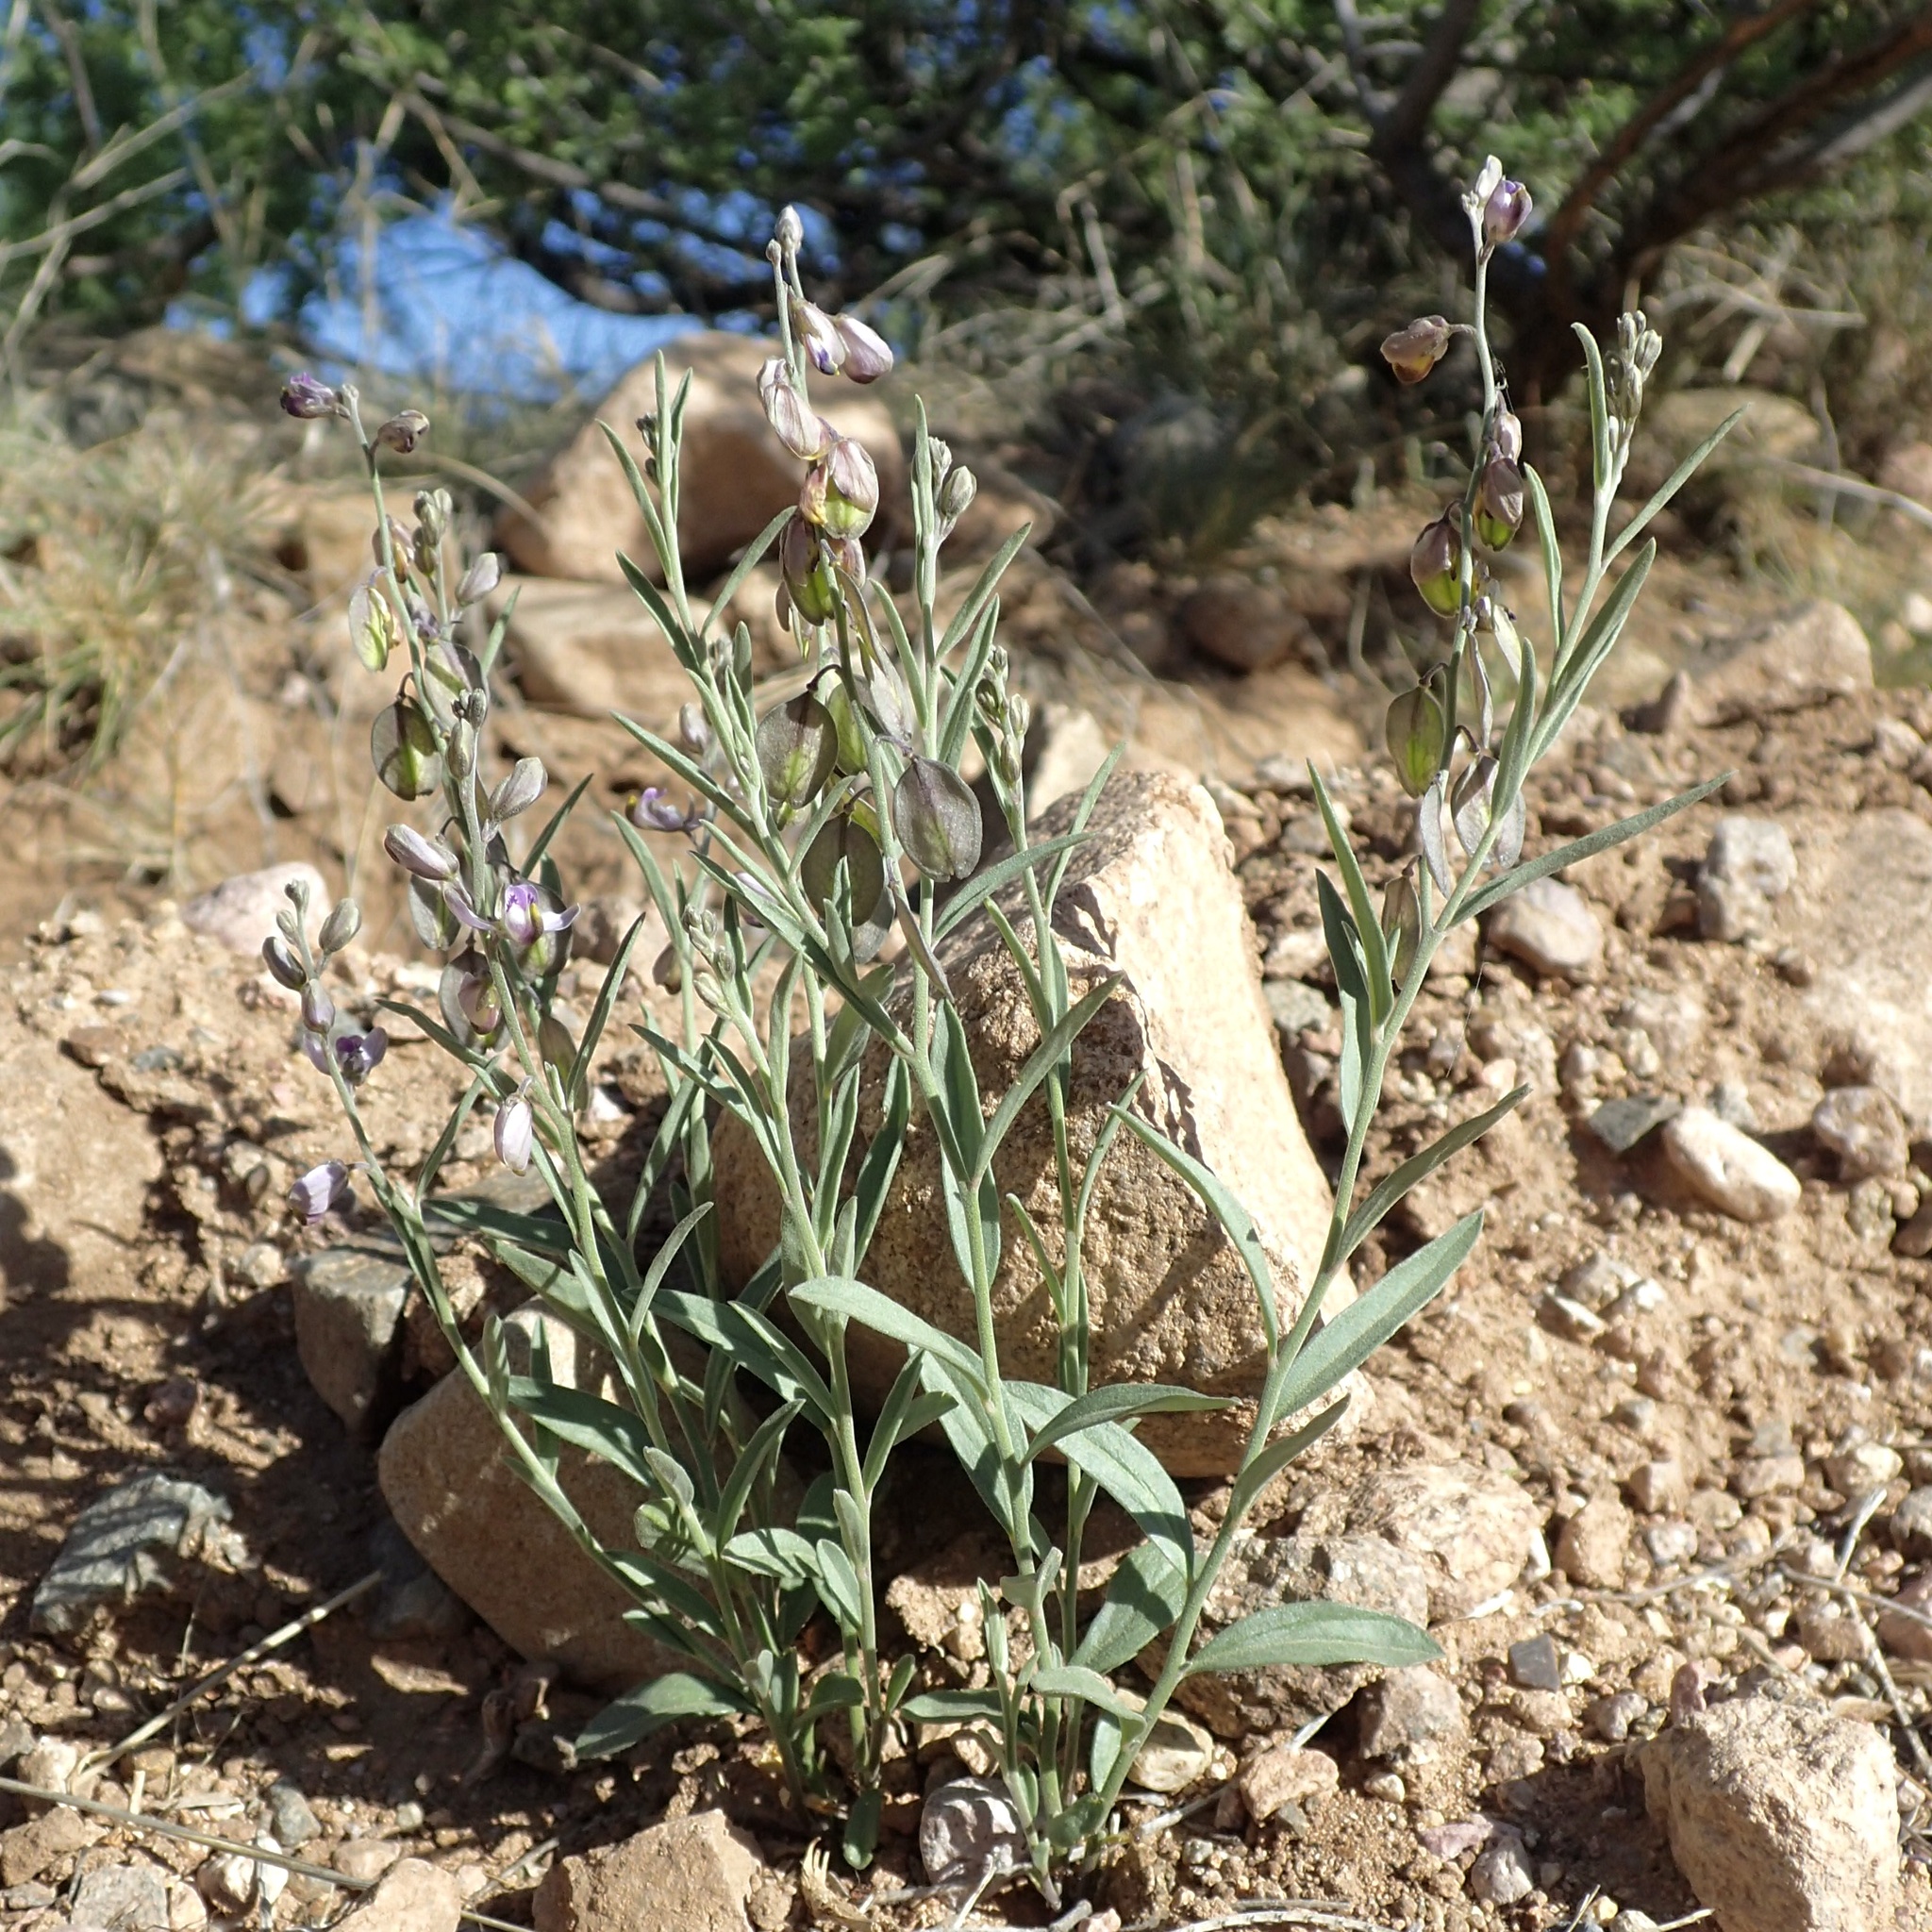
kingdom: Plantae
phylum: Tracheophyta
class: Magnoliopsida
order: Fabales
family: Polygalaceae
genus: Hebecarpa
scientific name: Hebecarpa barbeyana
